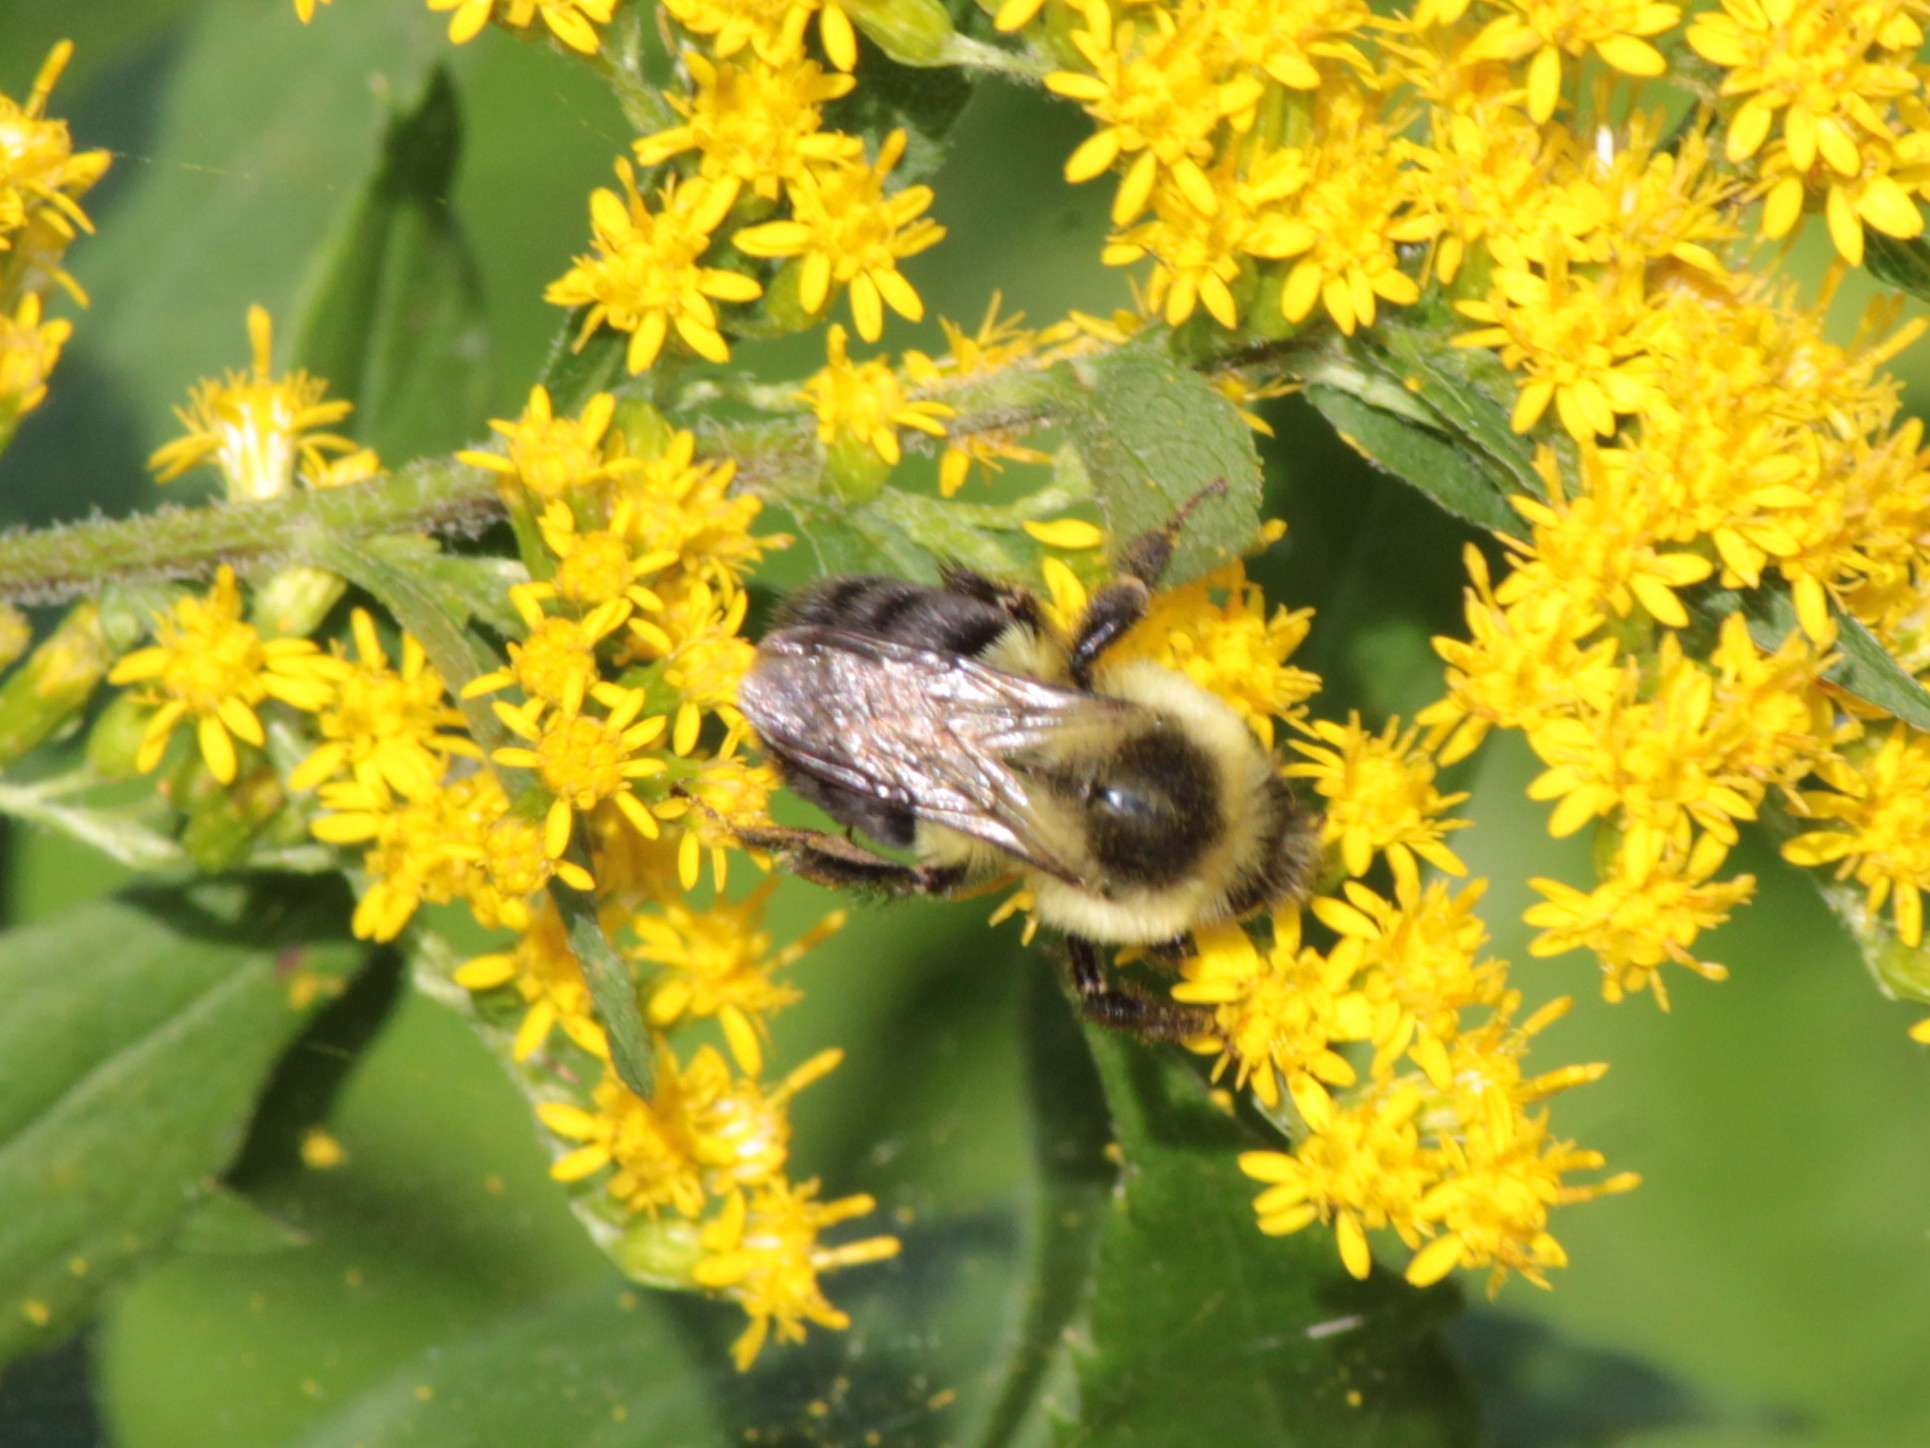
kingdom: Animalia
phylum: Arthropoda
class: Insecta
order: Hymenoptera
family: Apidae
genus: Bombus
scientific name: Bombus impatiens
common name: Common eastern bumble bee
